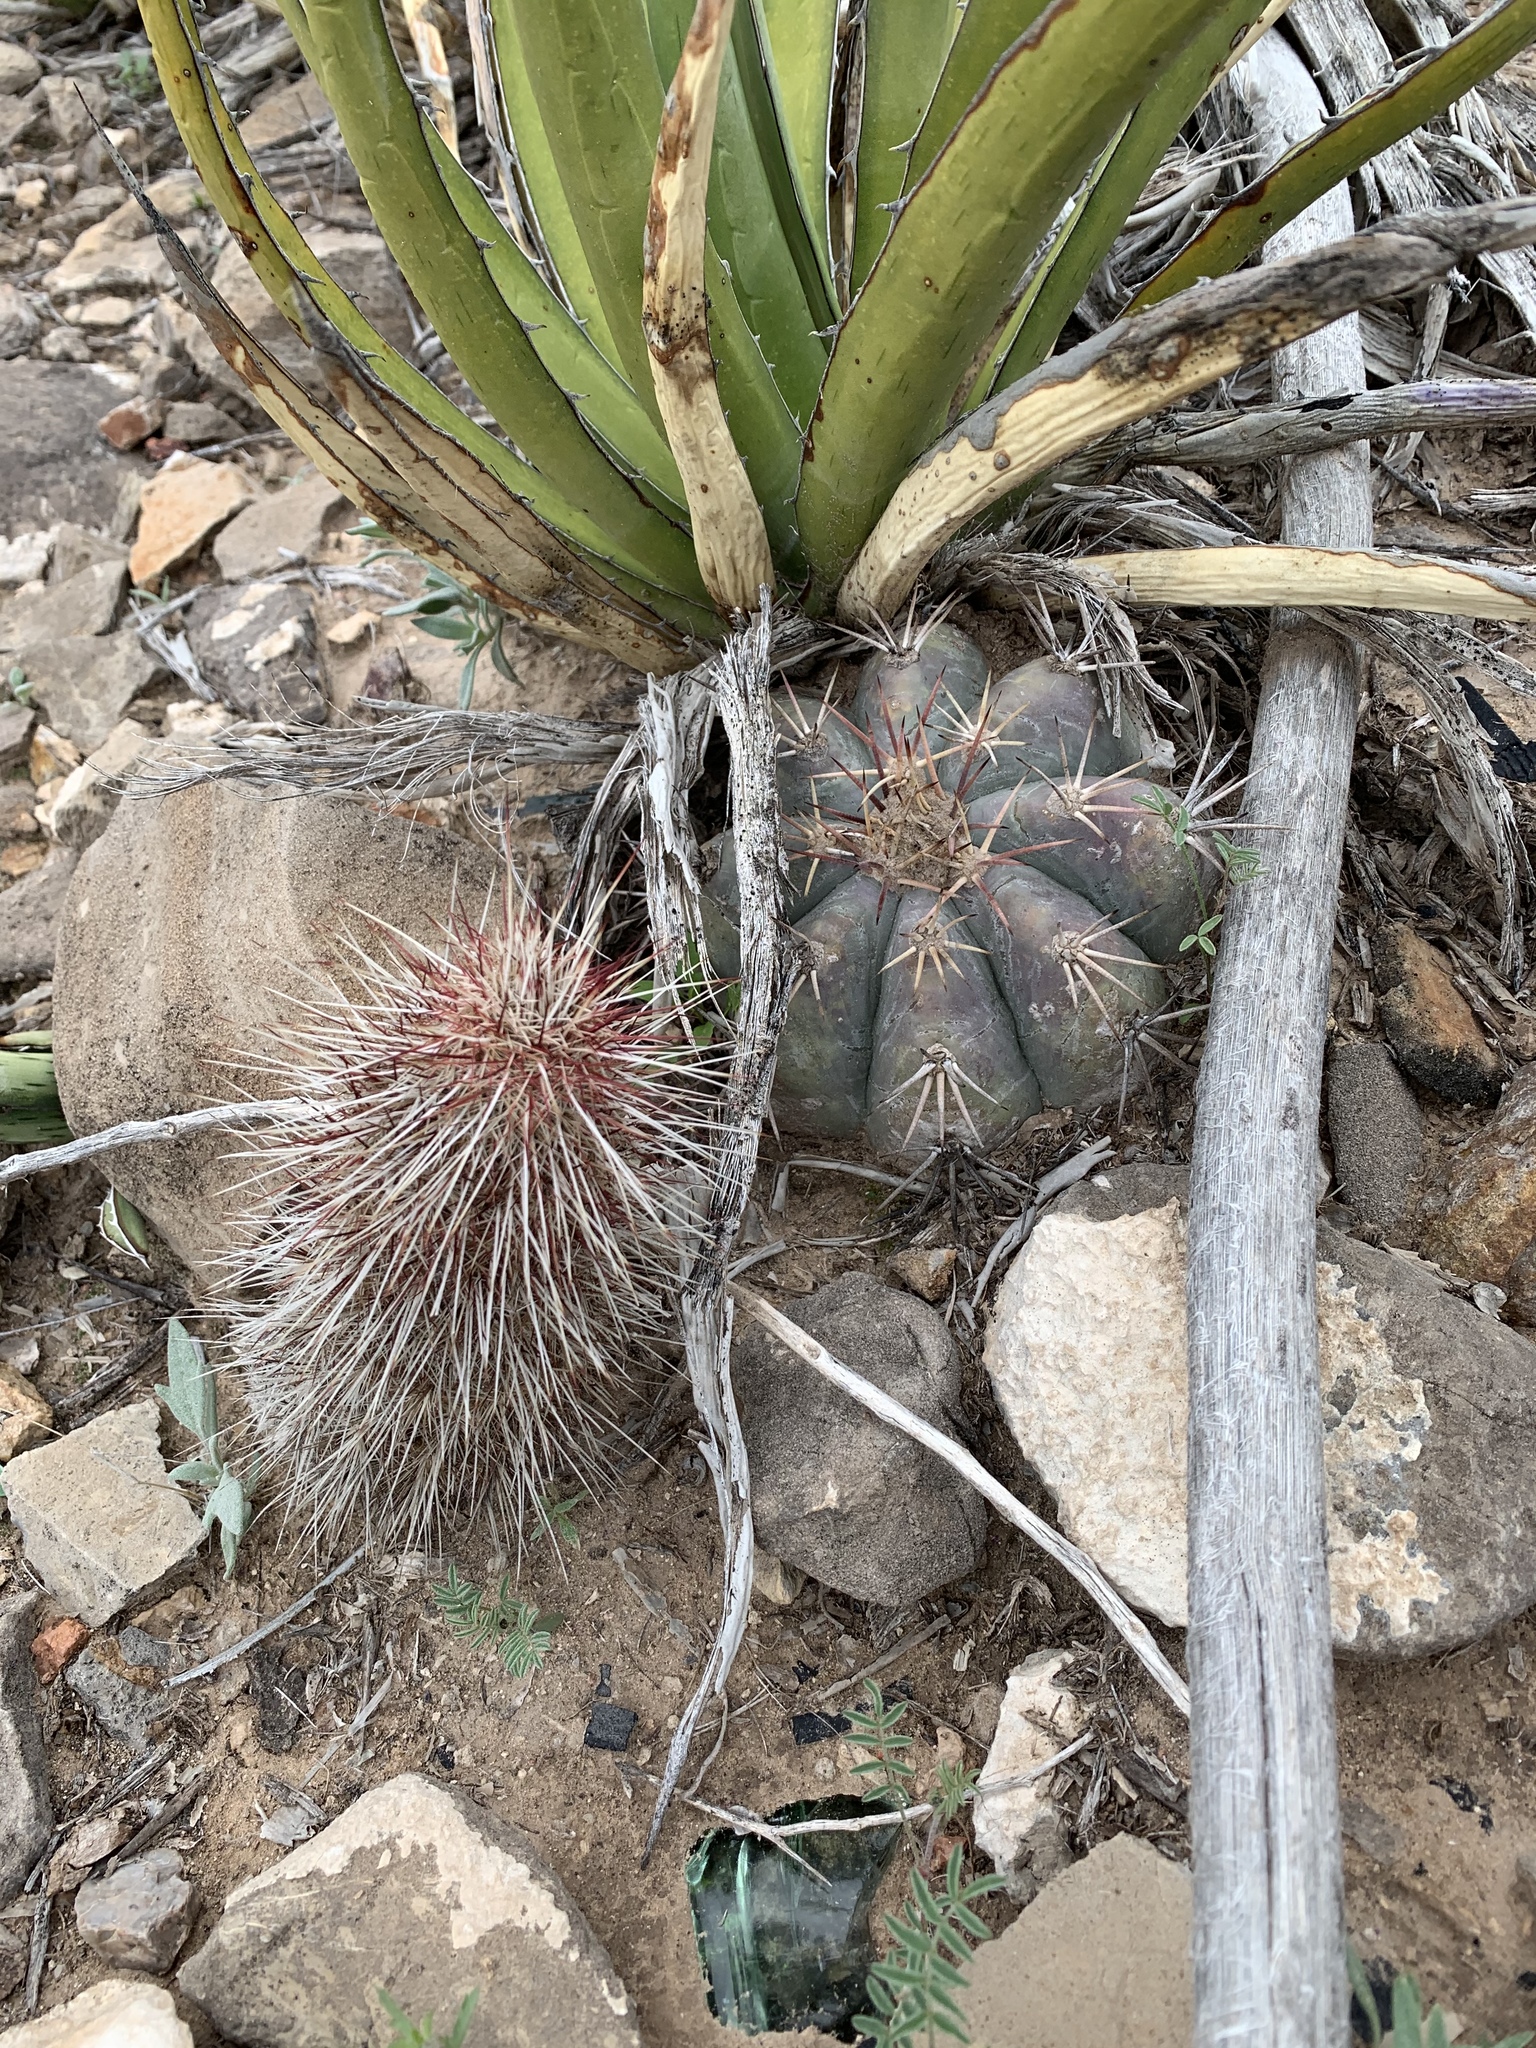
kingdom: Plantae
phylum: Tracheophyta
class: Magnoliopsida
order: Caryophyllales
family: Cactaceae
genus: Echinocactus
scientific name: Echinocactus horizonthalonius
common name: Devilshead
